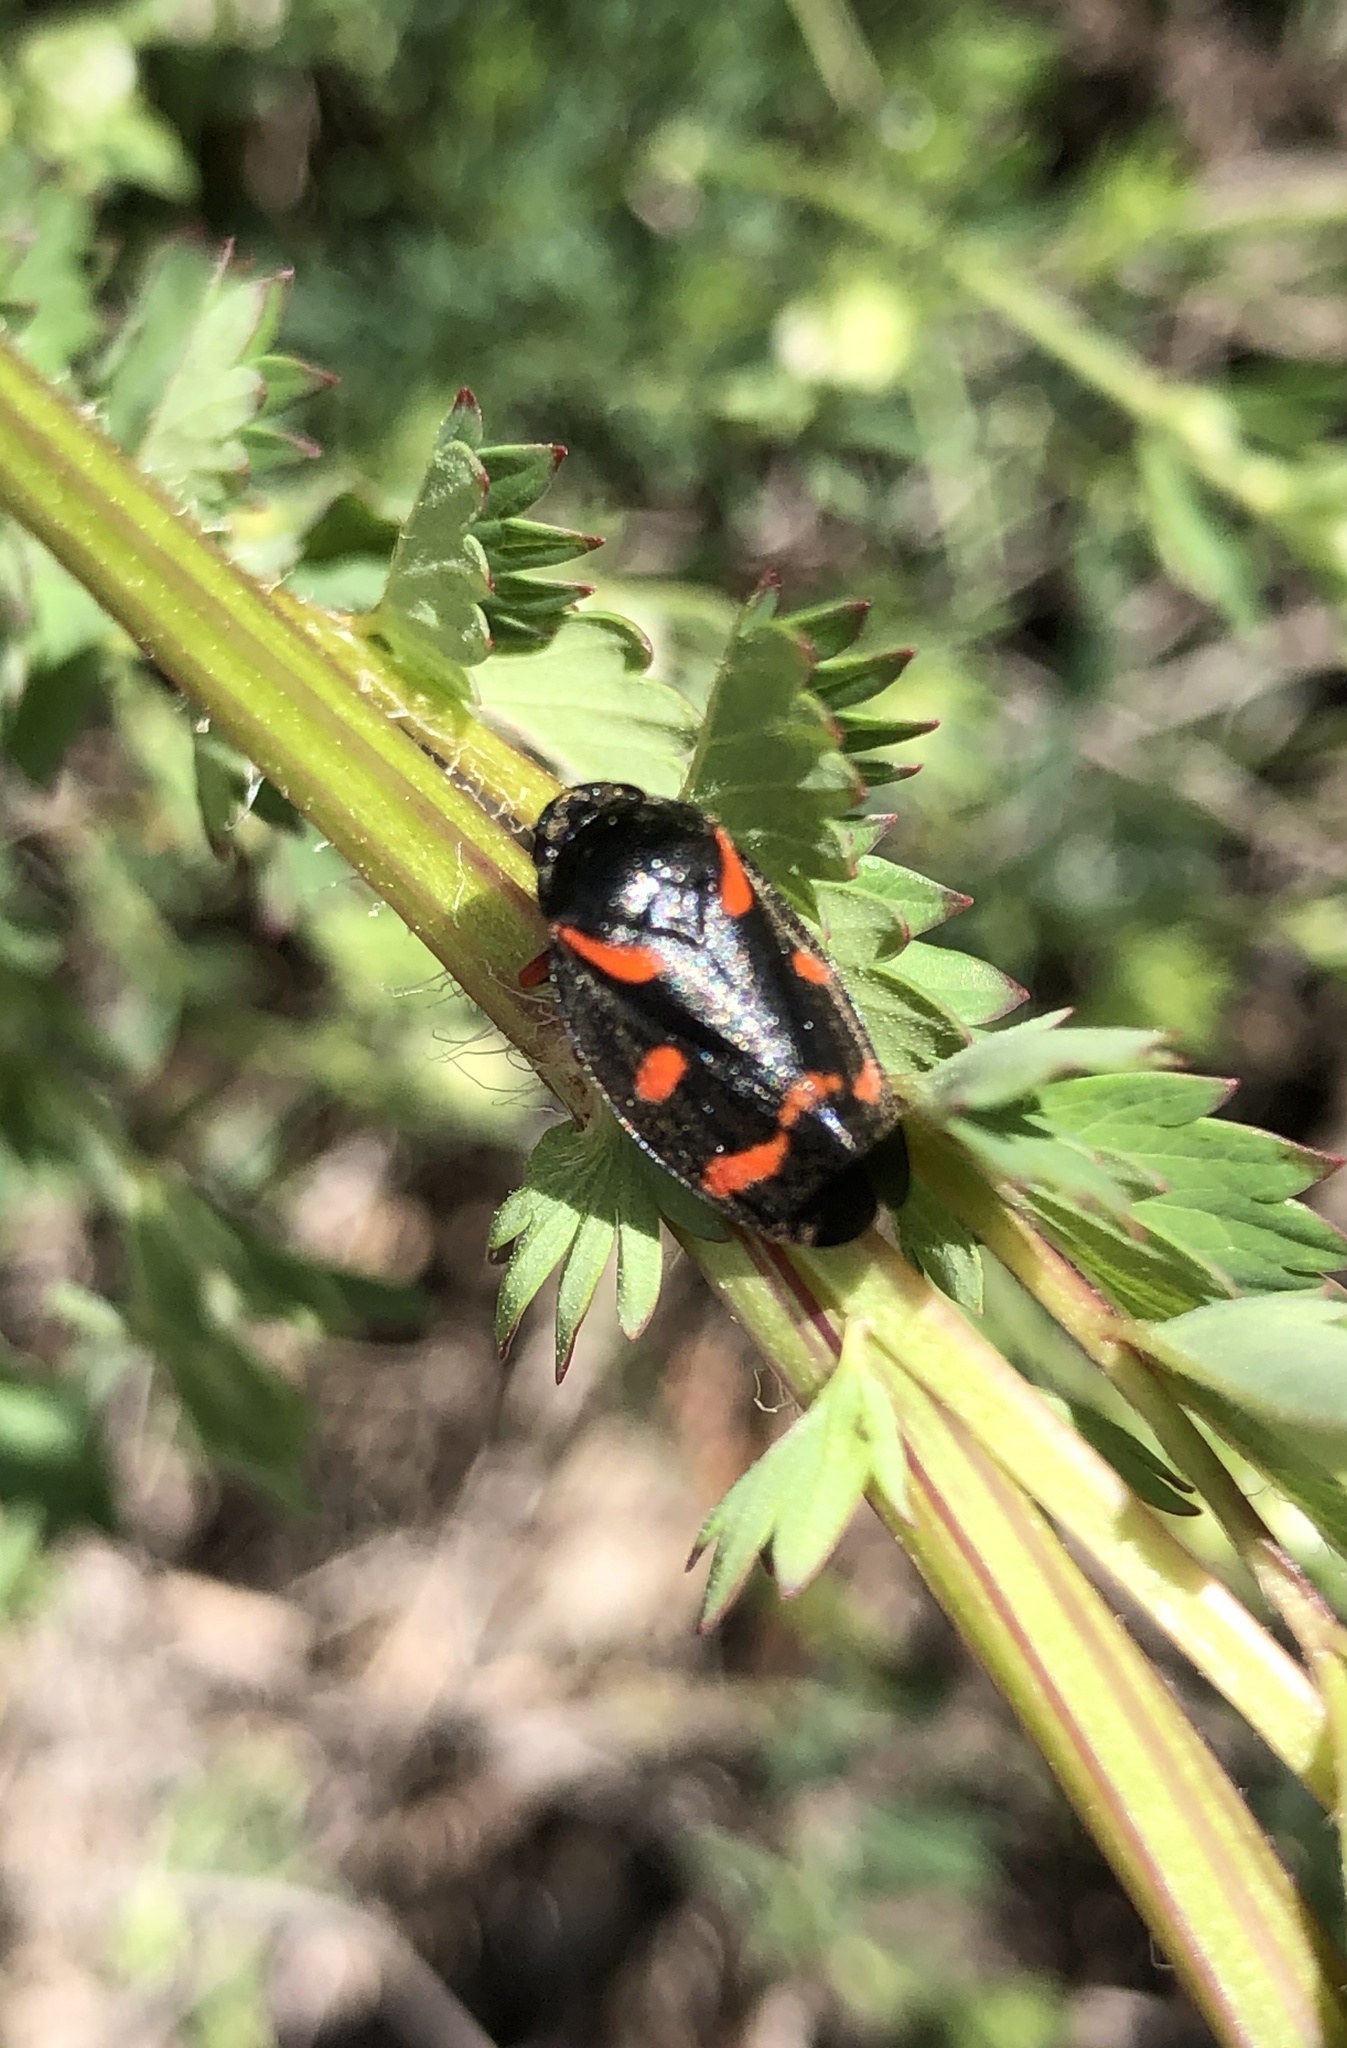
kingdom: Animalia
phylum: Arthropoda
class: Insecta
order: Hemiptera
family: Cercopidae
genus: Cercopis
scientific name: Cercopis intermedia
